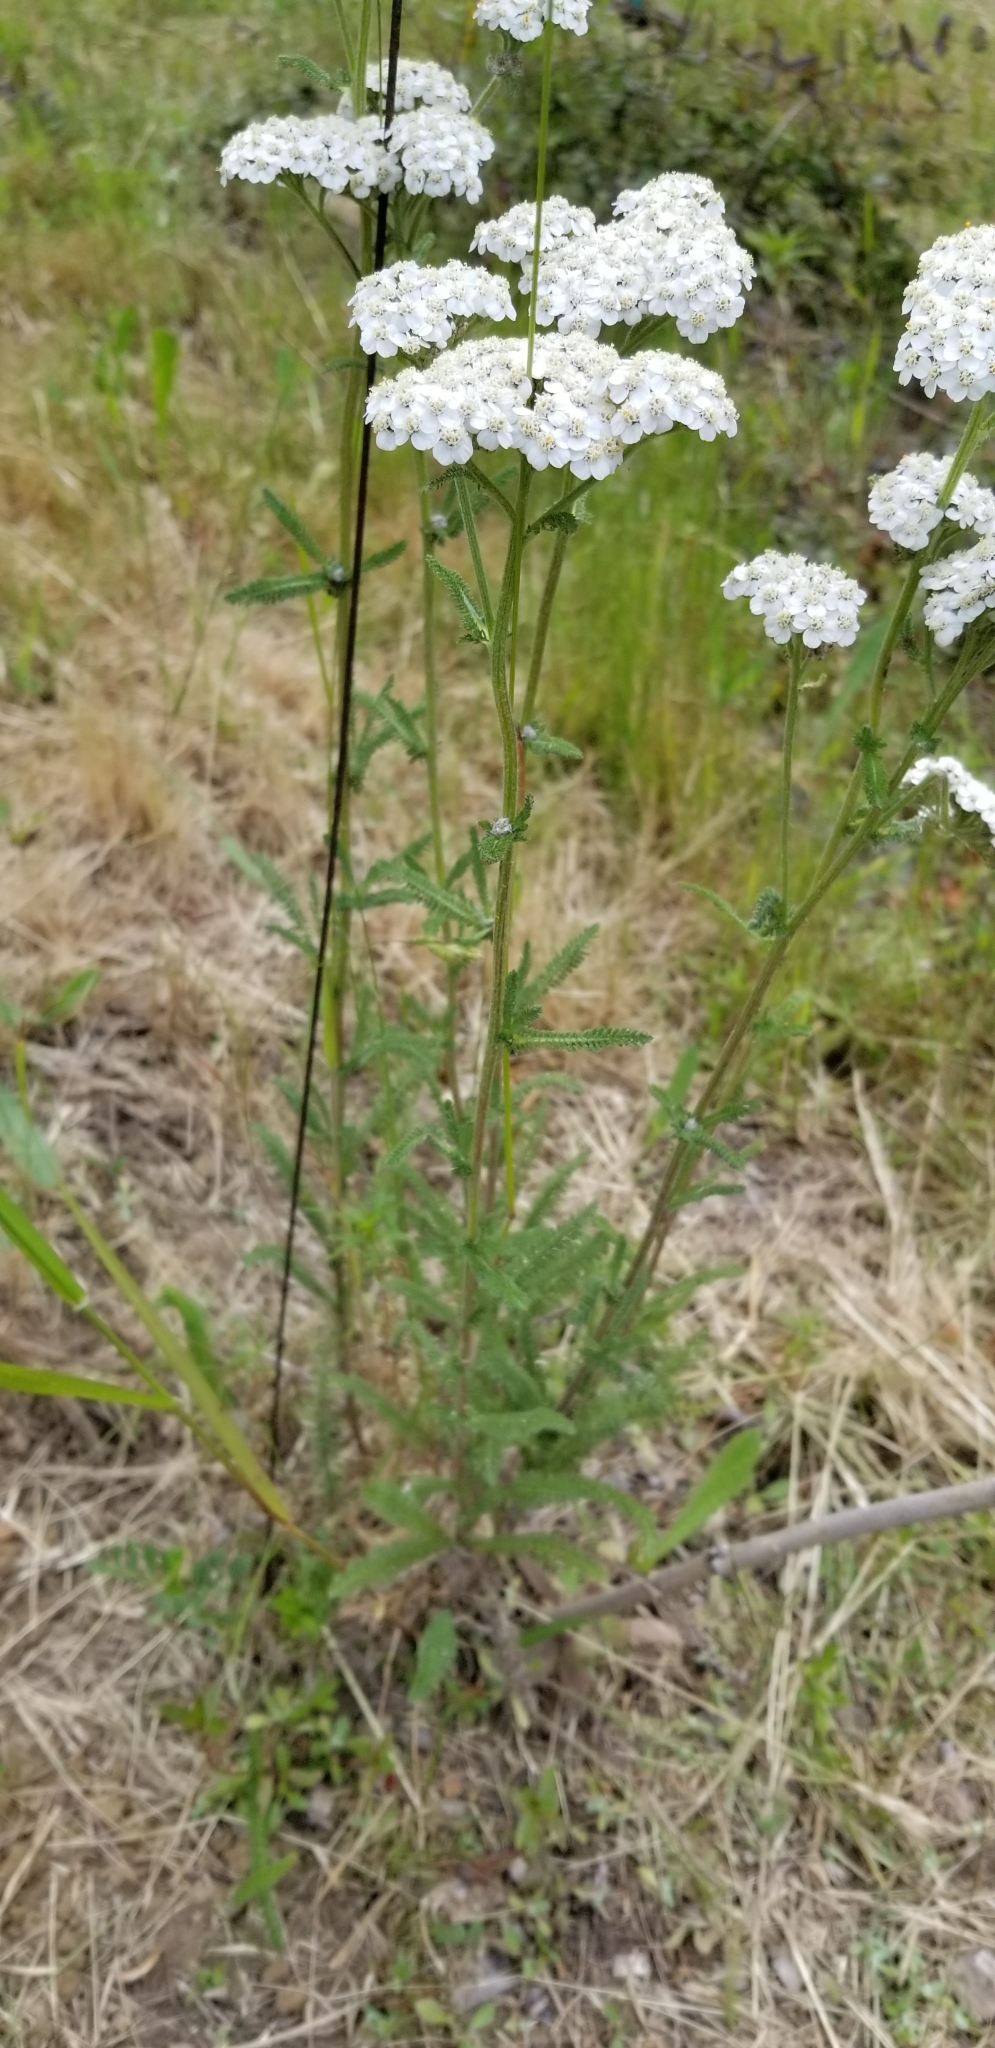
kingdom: Plantae
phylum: Tracheophyta
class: Magnoliopsida
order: Asterales
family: Asteraceae
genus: Achillea
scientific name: Achillea millefolium
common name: Yarrow
